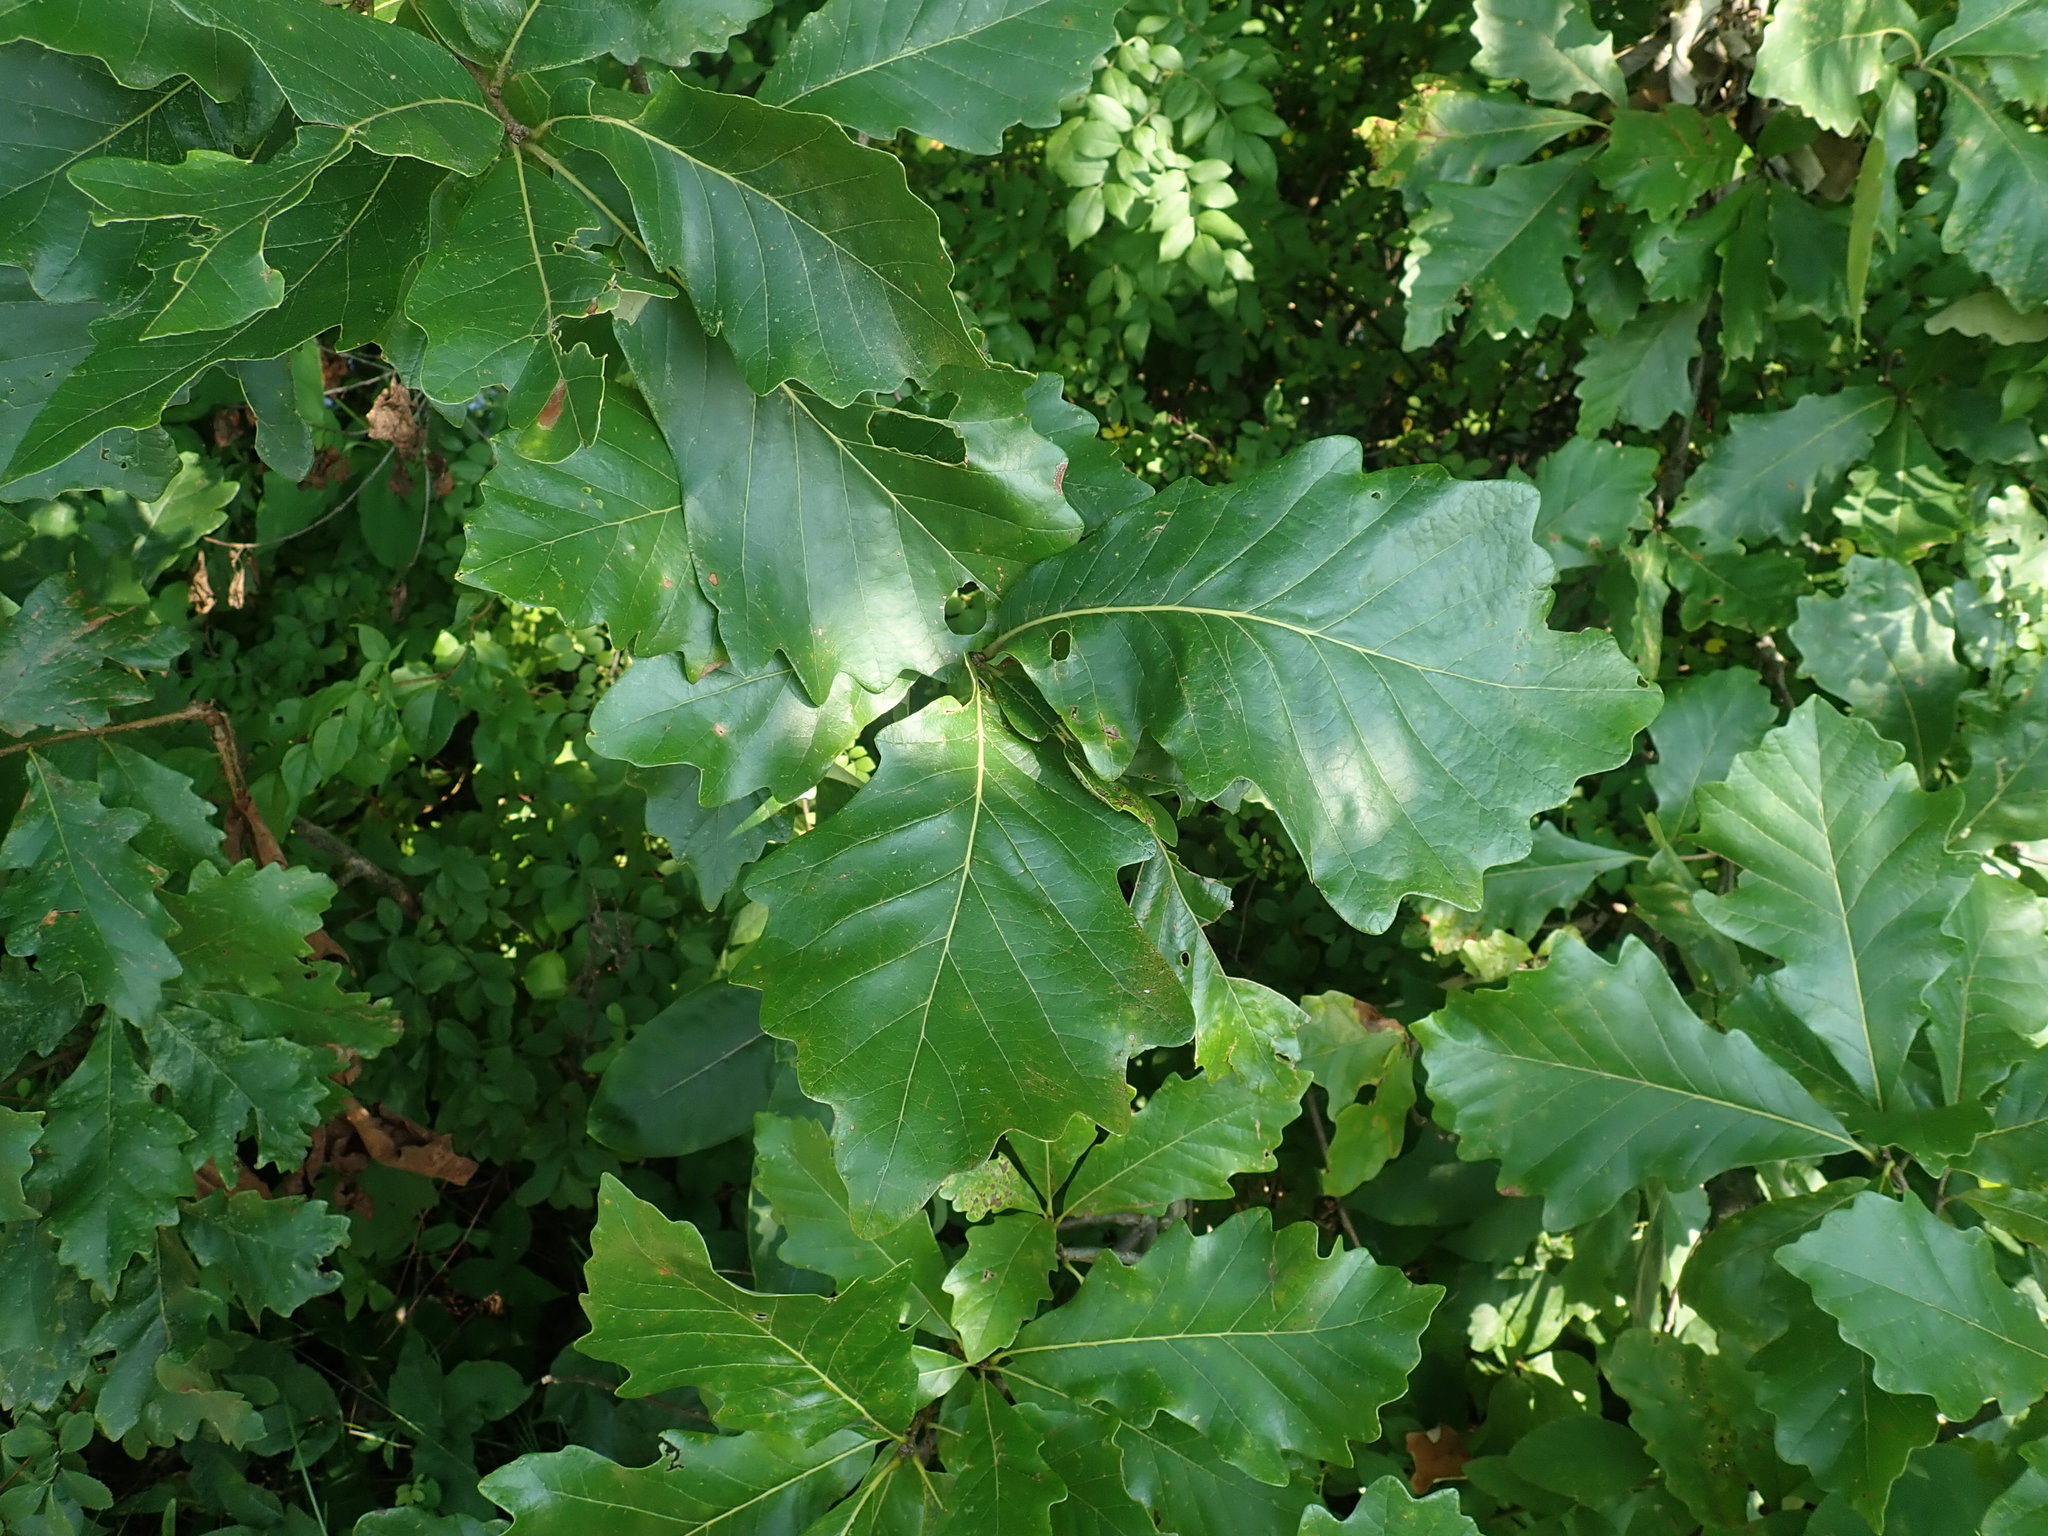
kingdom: Plantae
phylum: Tracheophyta
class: Magnoliopsida
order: Fagales
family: Fagaceae
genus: Quercus
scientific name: Quercus bicolor
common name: Swamp white oak
